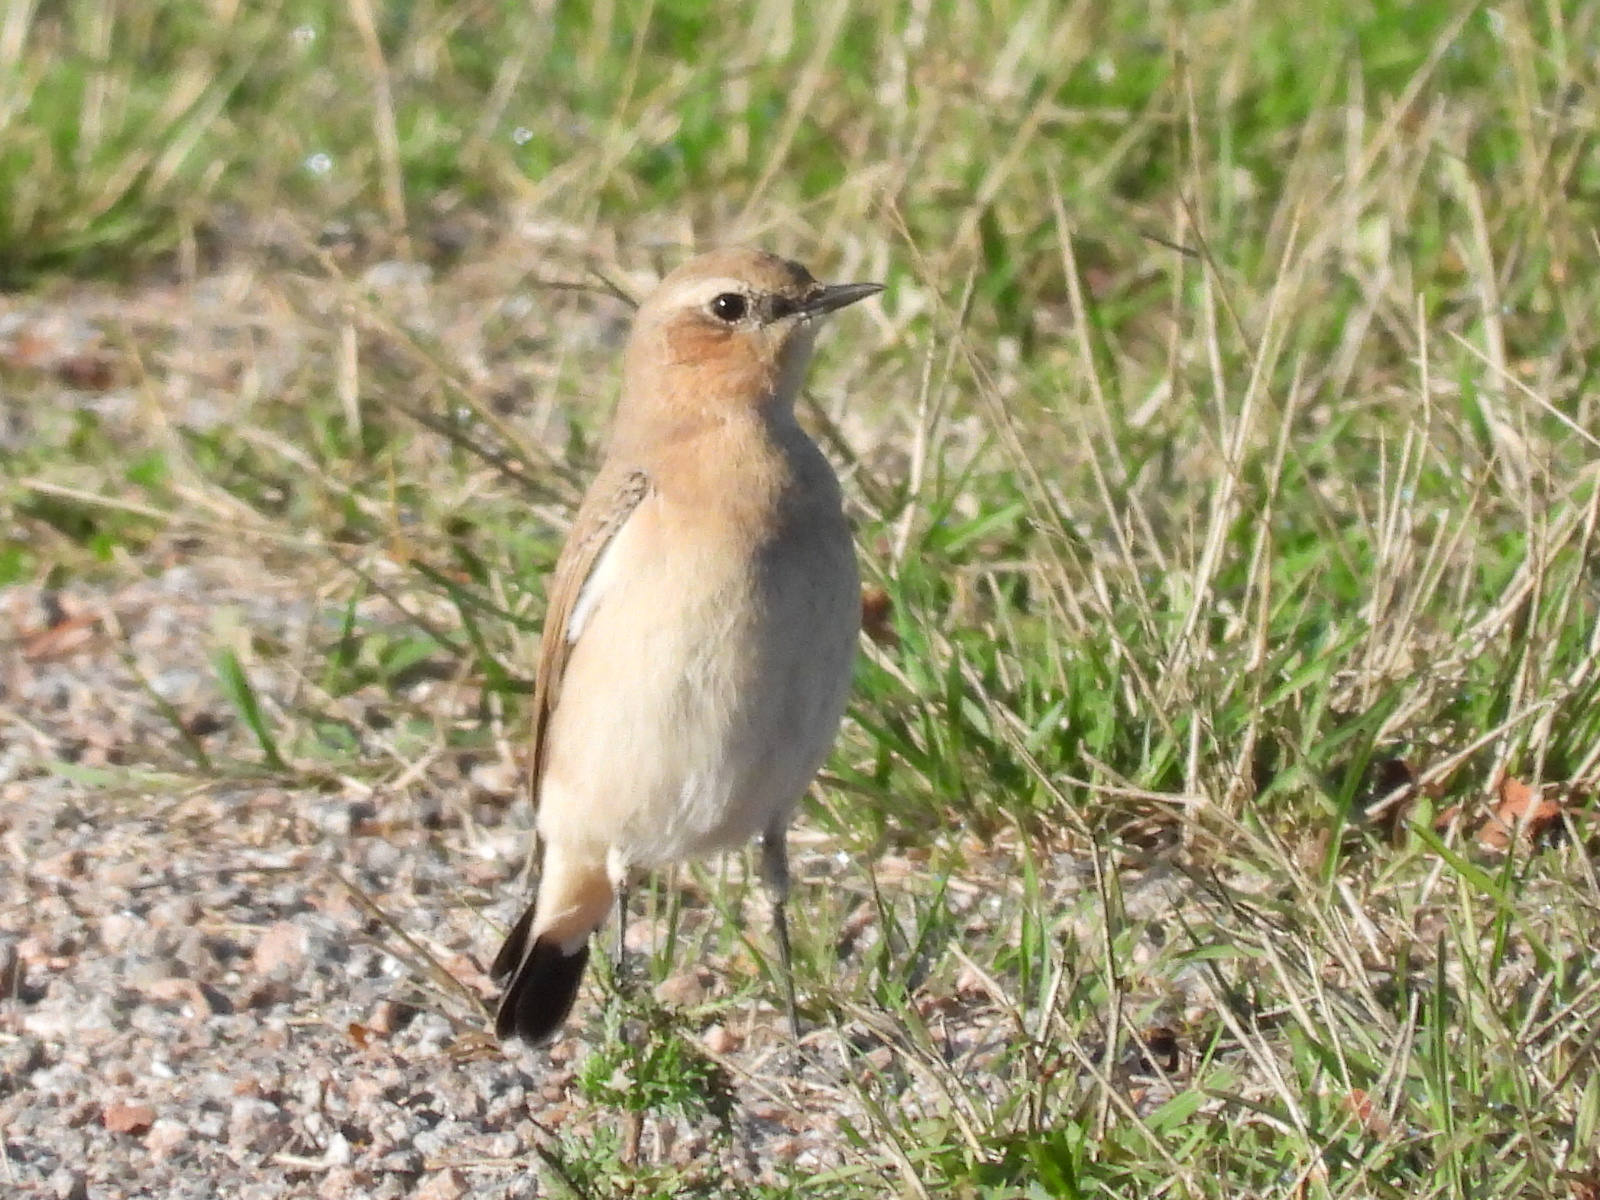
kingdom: Animalia
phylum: Chordata
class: Aves
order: Passeriformes
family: Muscicapidae
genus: Oenanthe
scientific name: Oenanthe oenanthe
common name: Northern wheatear
